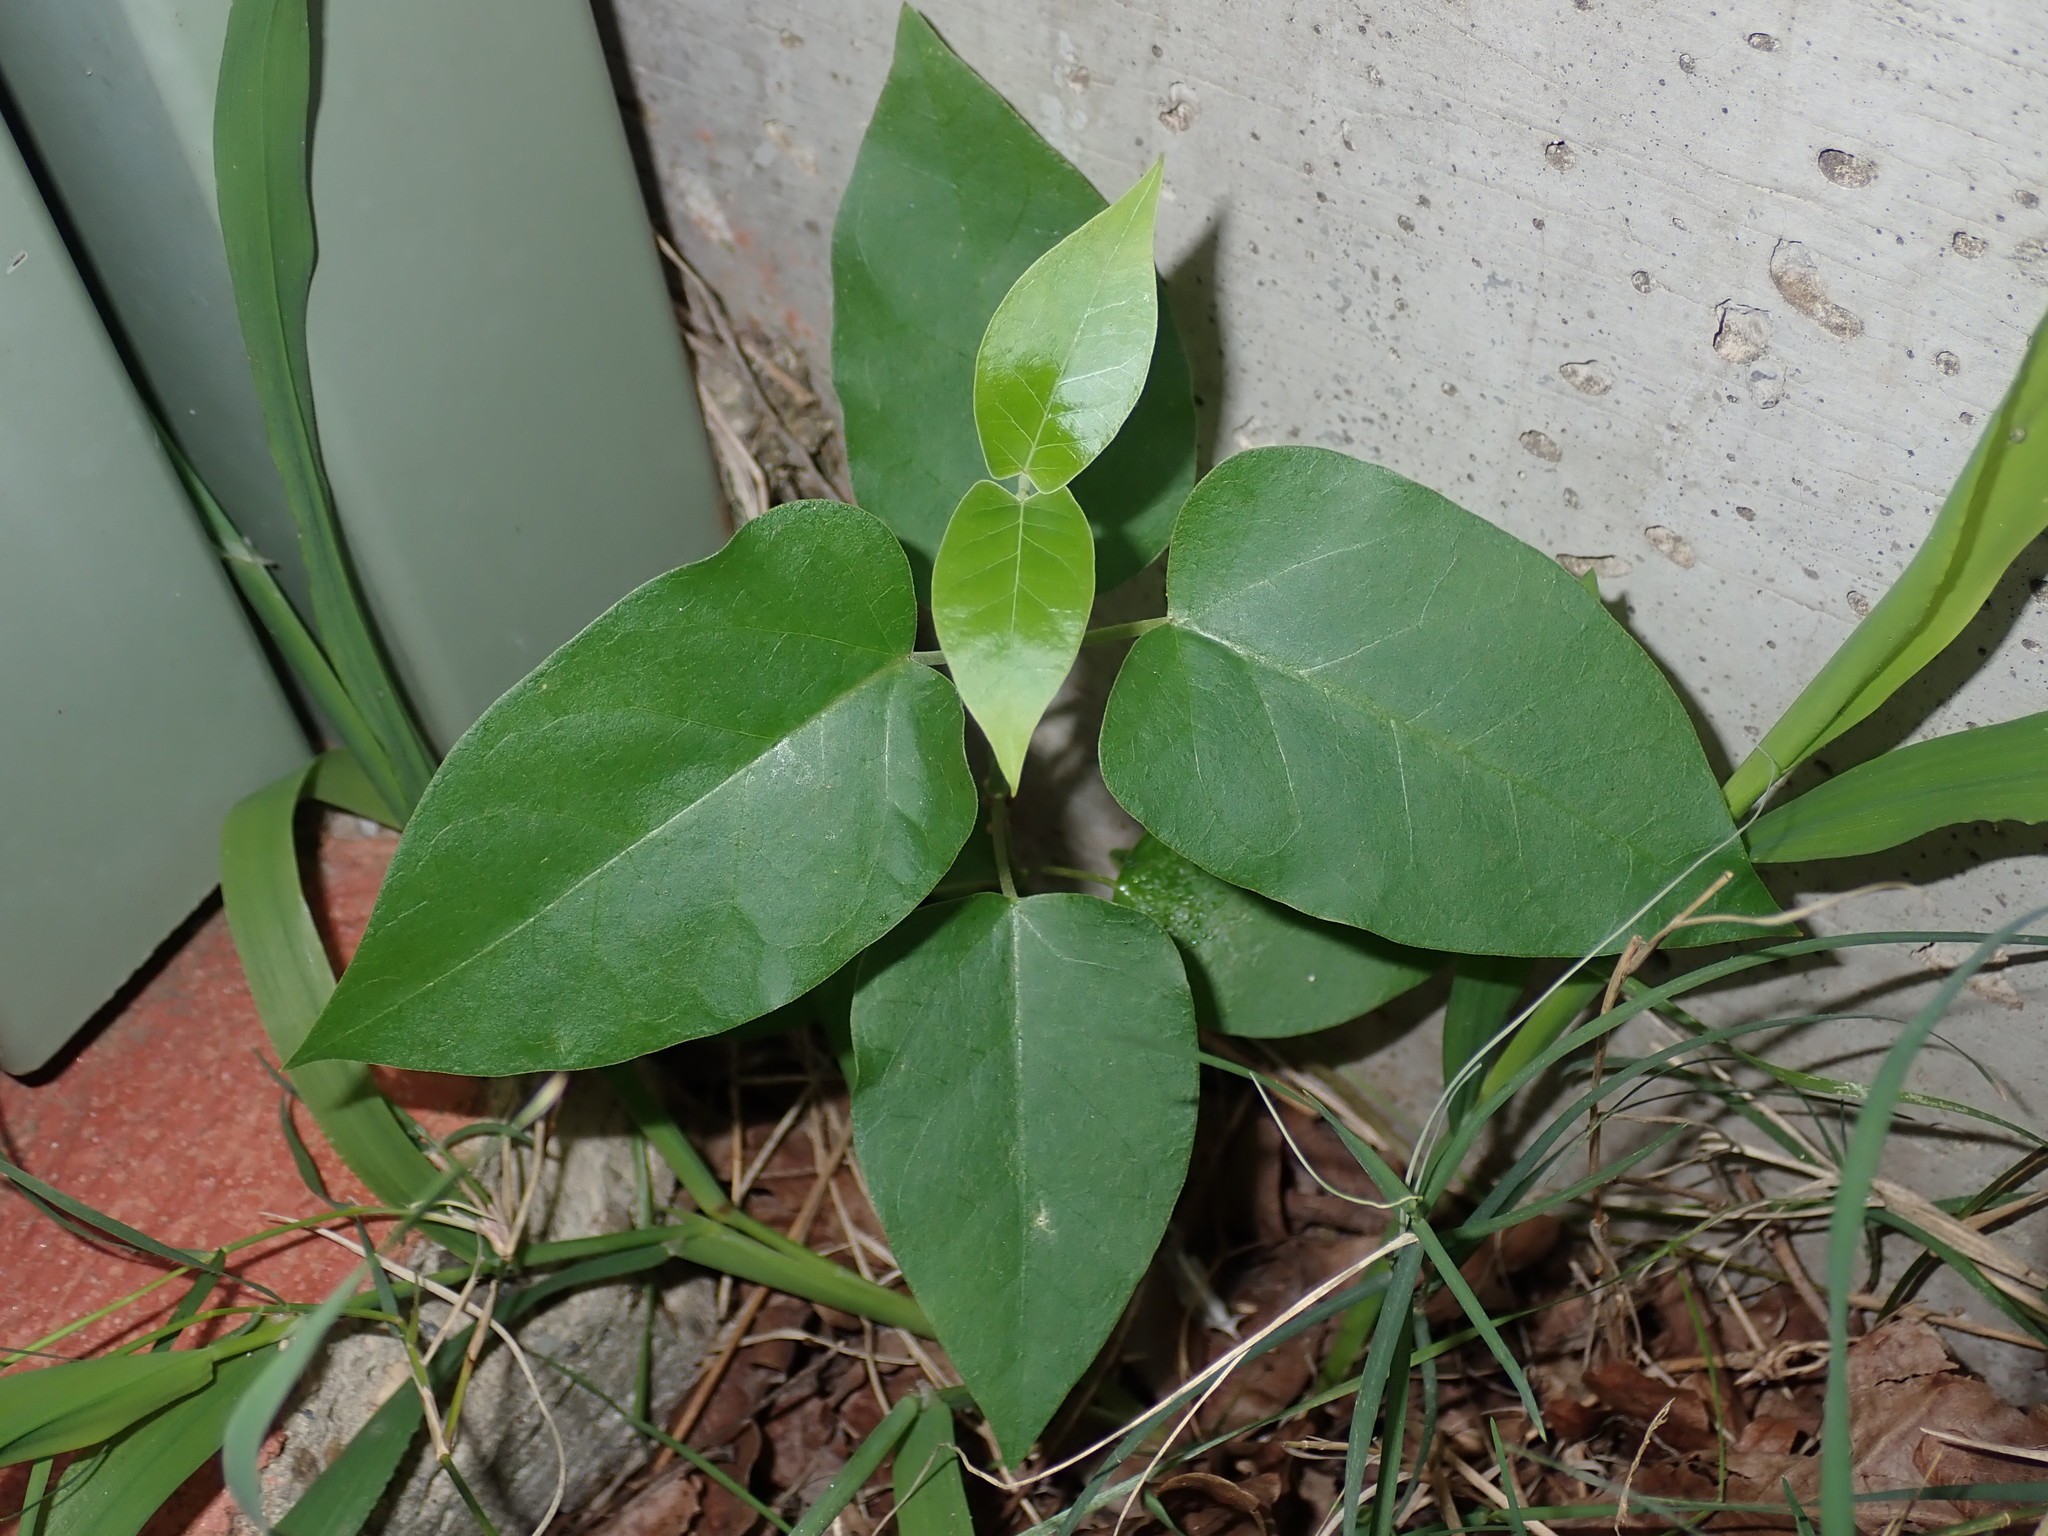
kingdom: Plantae
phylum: Tracheophyta
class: Magnoliopsida
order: Gentianales
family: Apocynaceae
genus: Araujia
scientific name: Araujia sericifera
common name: White bladderflower
